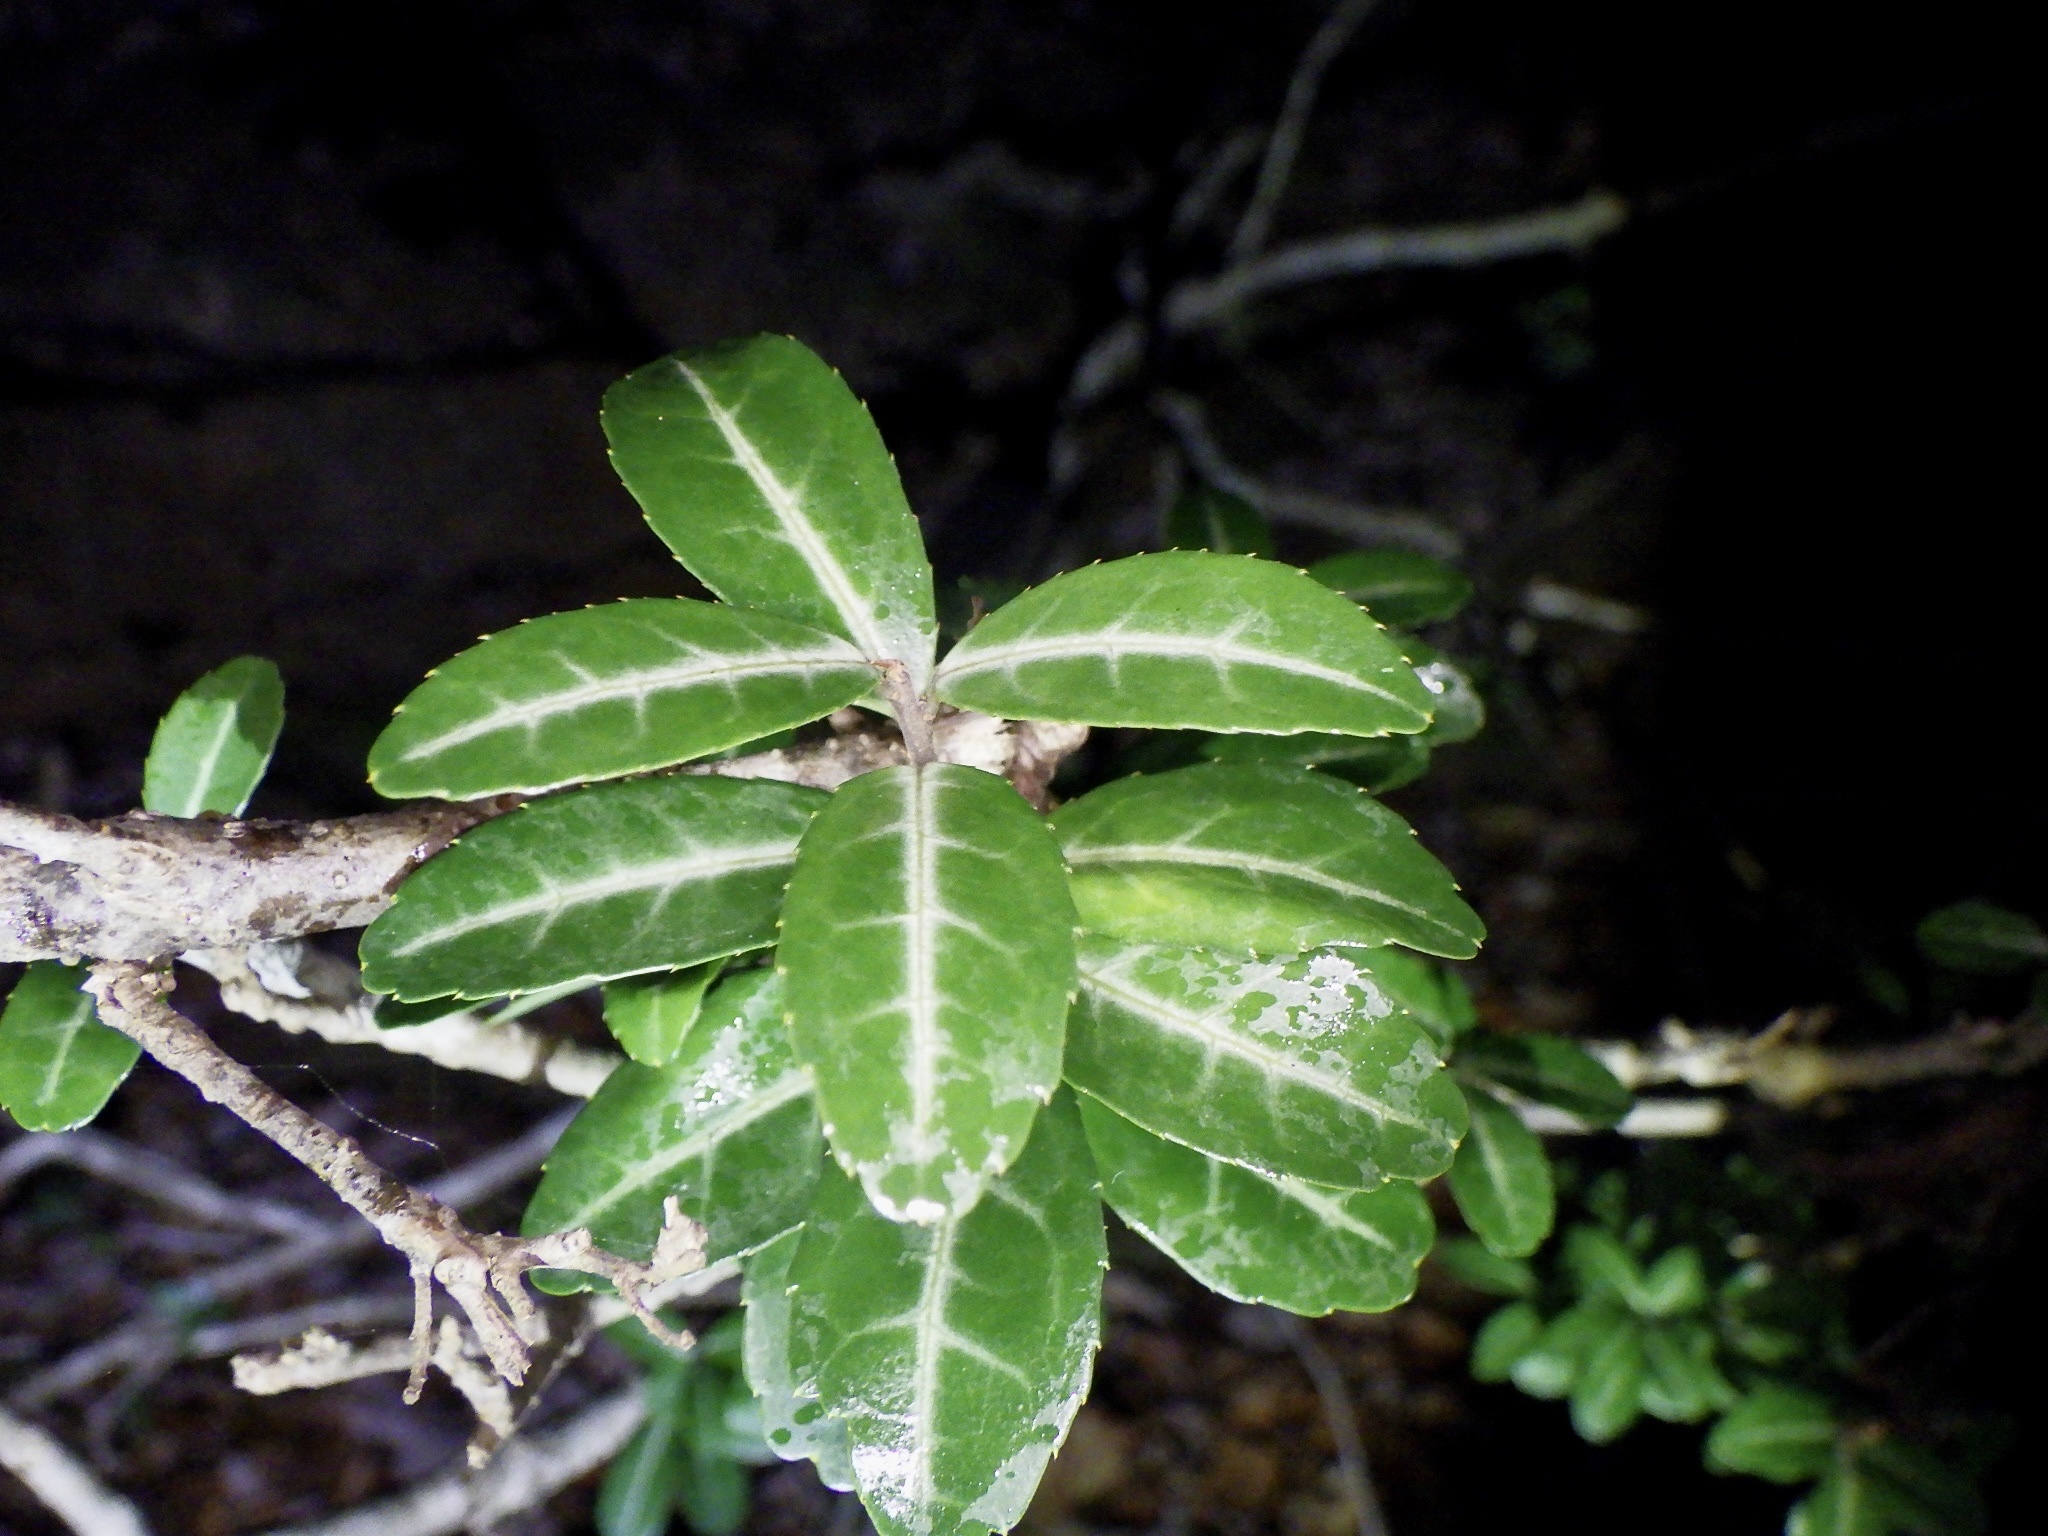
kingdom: Plantae
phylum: Tracheophyta
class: Magnoliopsida
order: Aquifoliales
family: Aquifoliaceae
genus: Ilex
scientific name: Ilex crenata
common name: Japanese holly
